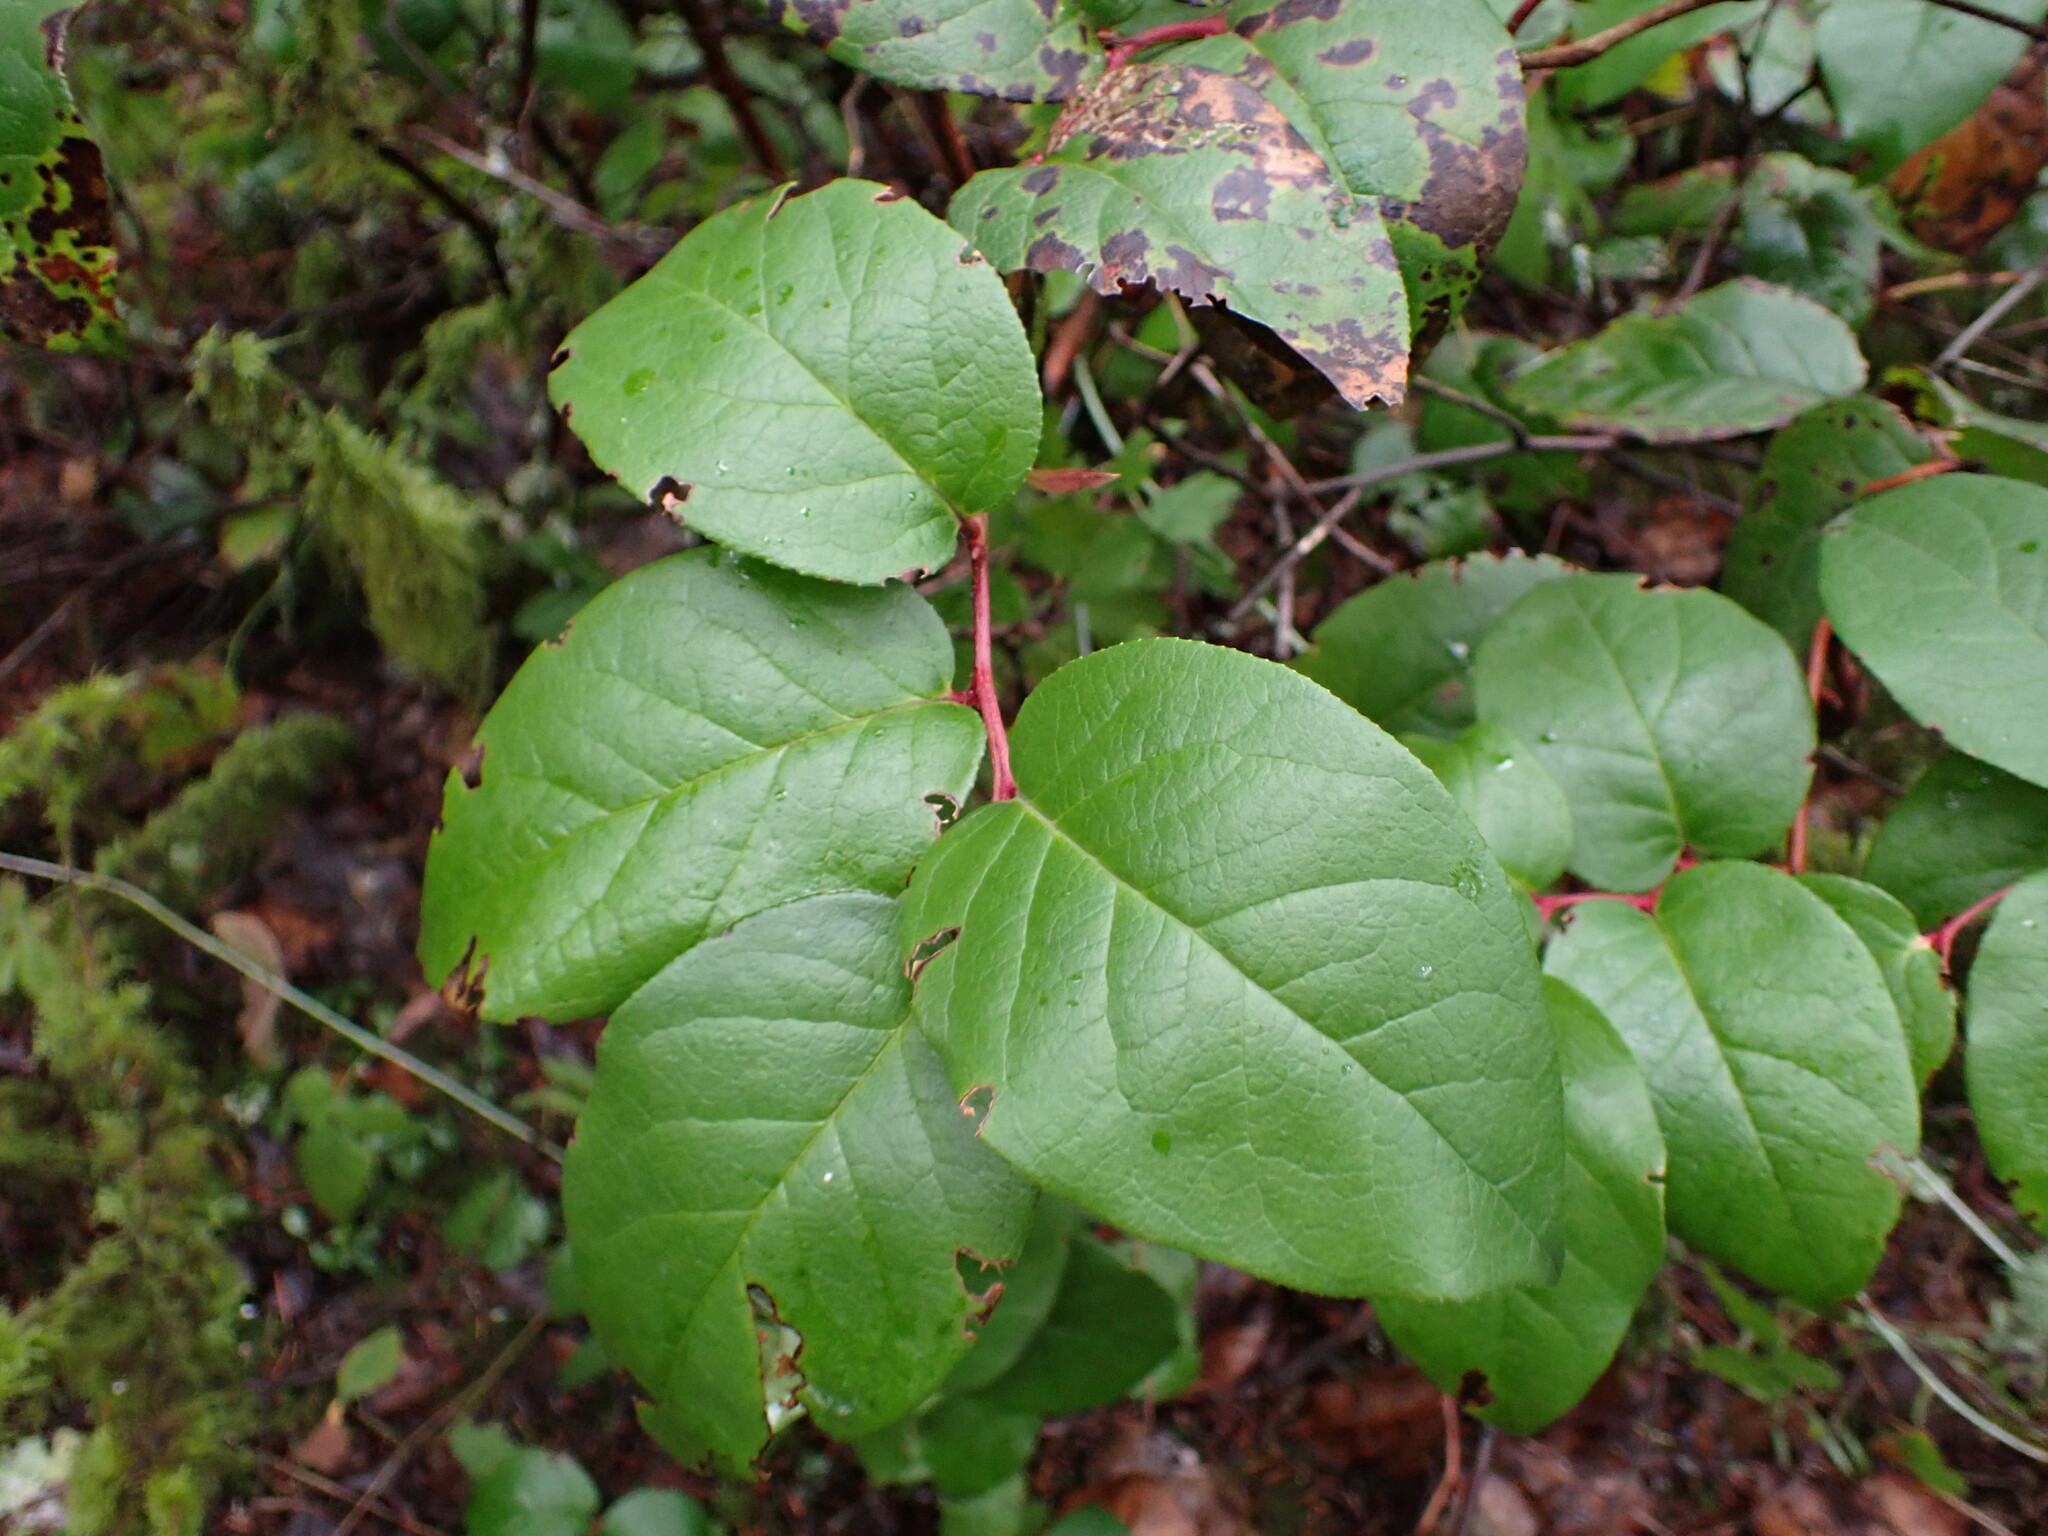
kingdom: Plantae
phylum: Tracheophyta
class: Magnoliopsida
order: Ericales
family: Ericaceae
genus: Gaultheria
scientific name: Gaultheria shallon
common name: Shallon
